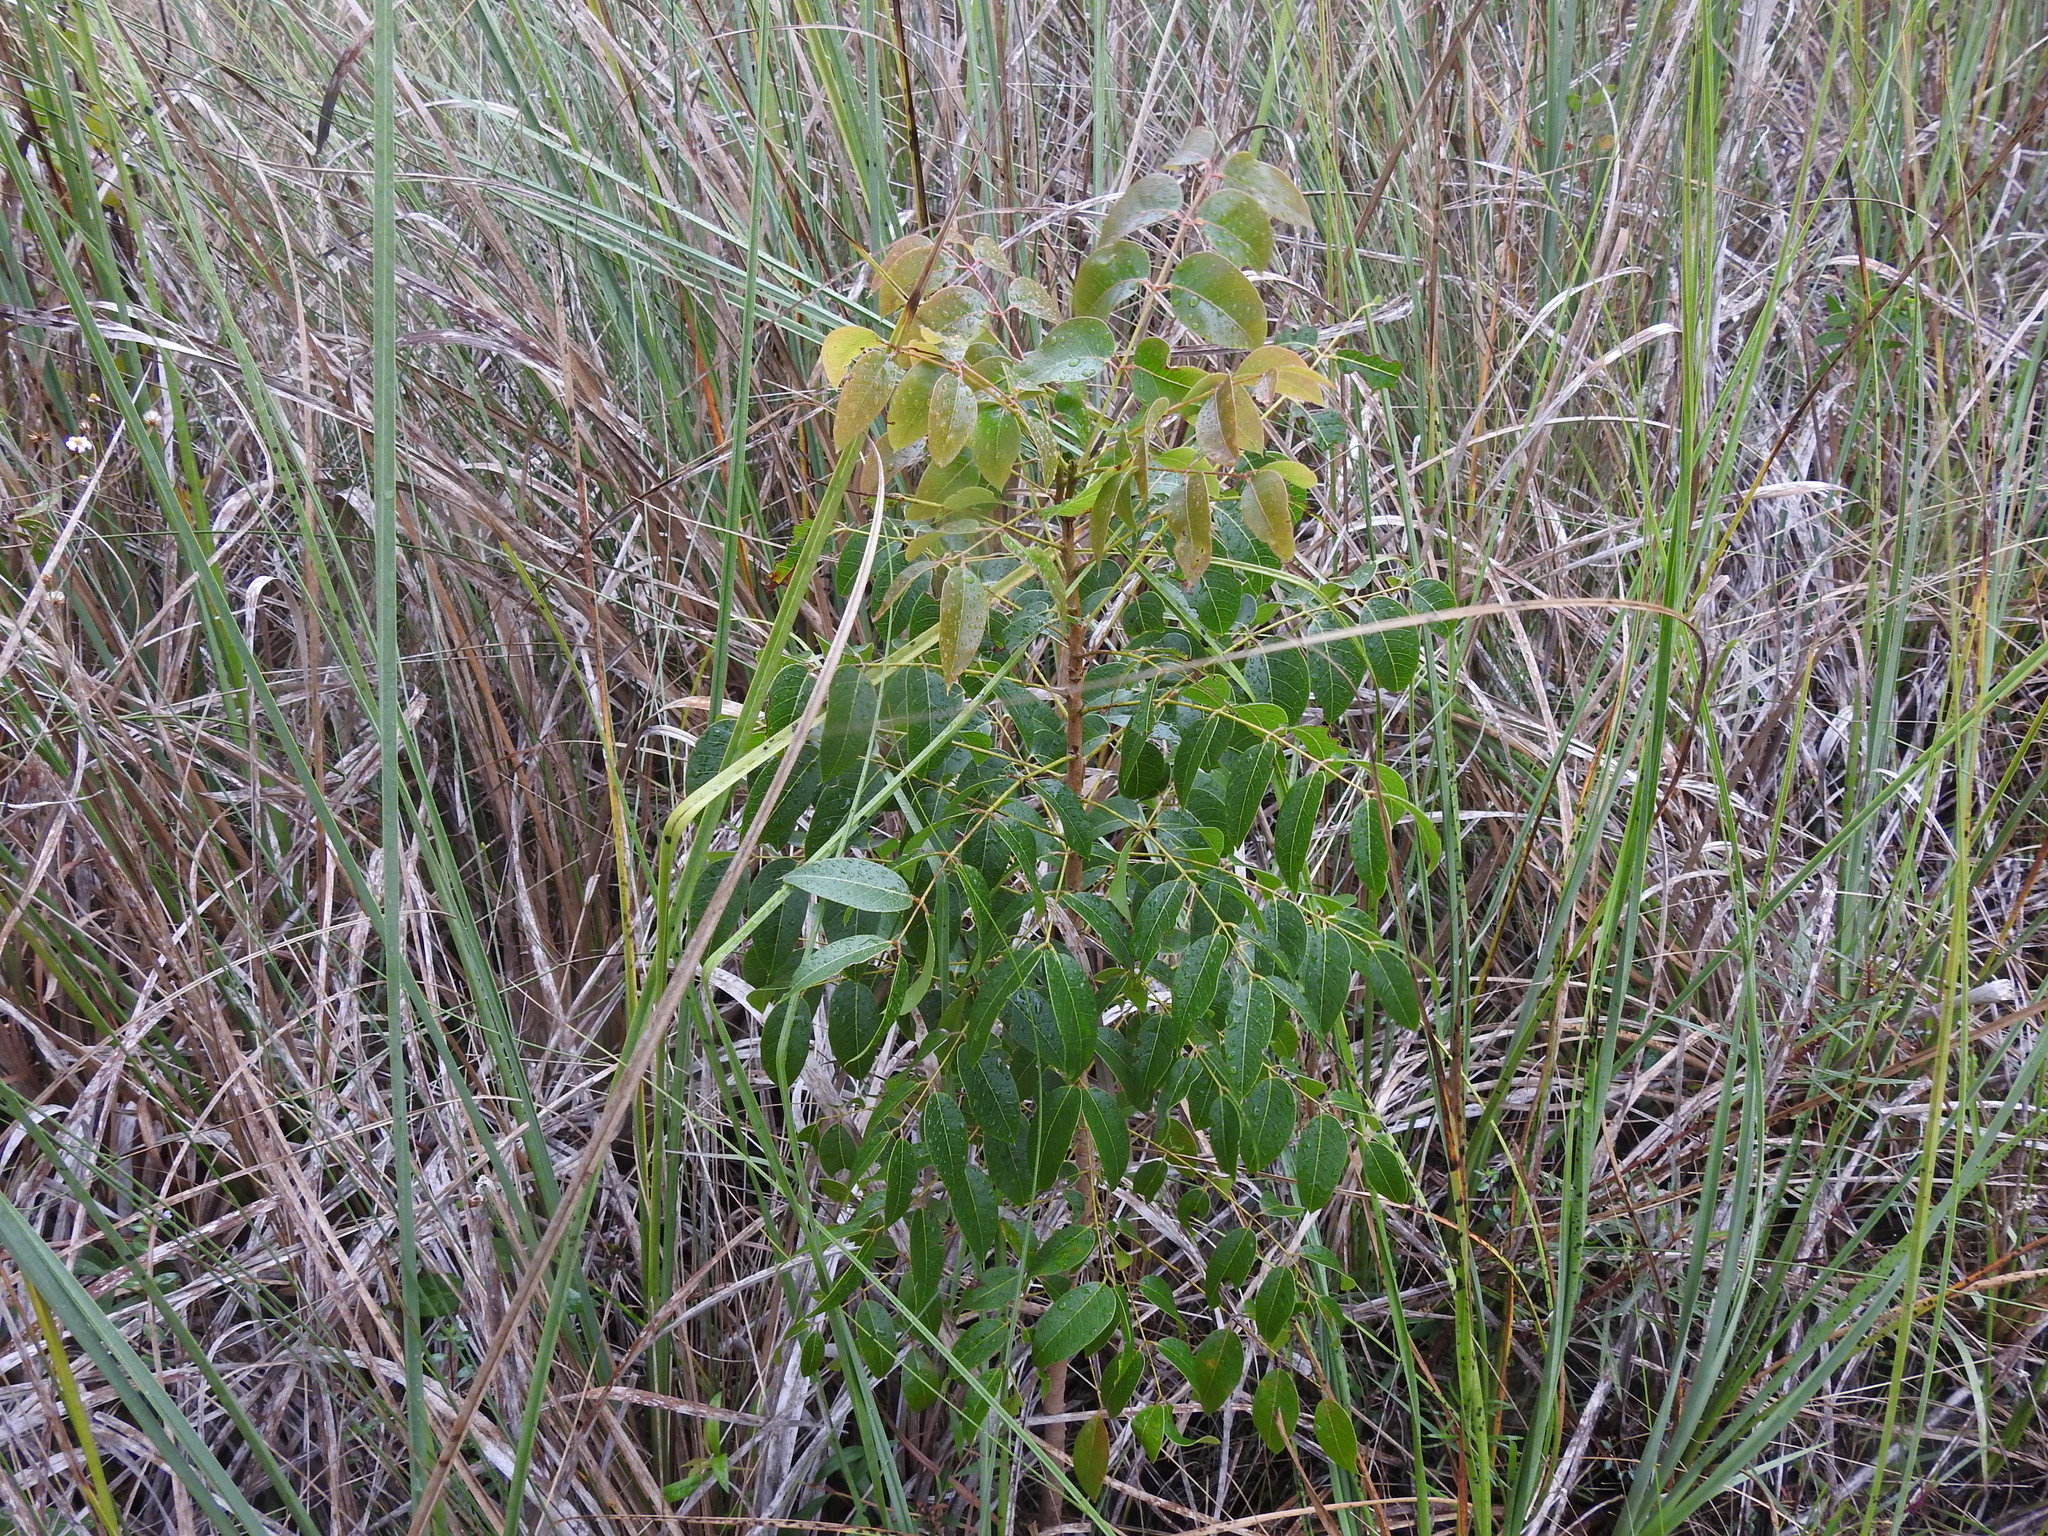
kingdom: Plantae
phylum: Tracheophyta
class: Magnoliopsida
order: Sapindales
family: Meliaceae
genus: Swietenia
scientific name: Swietenia mahagoni
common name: West indian mahogany
